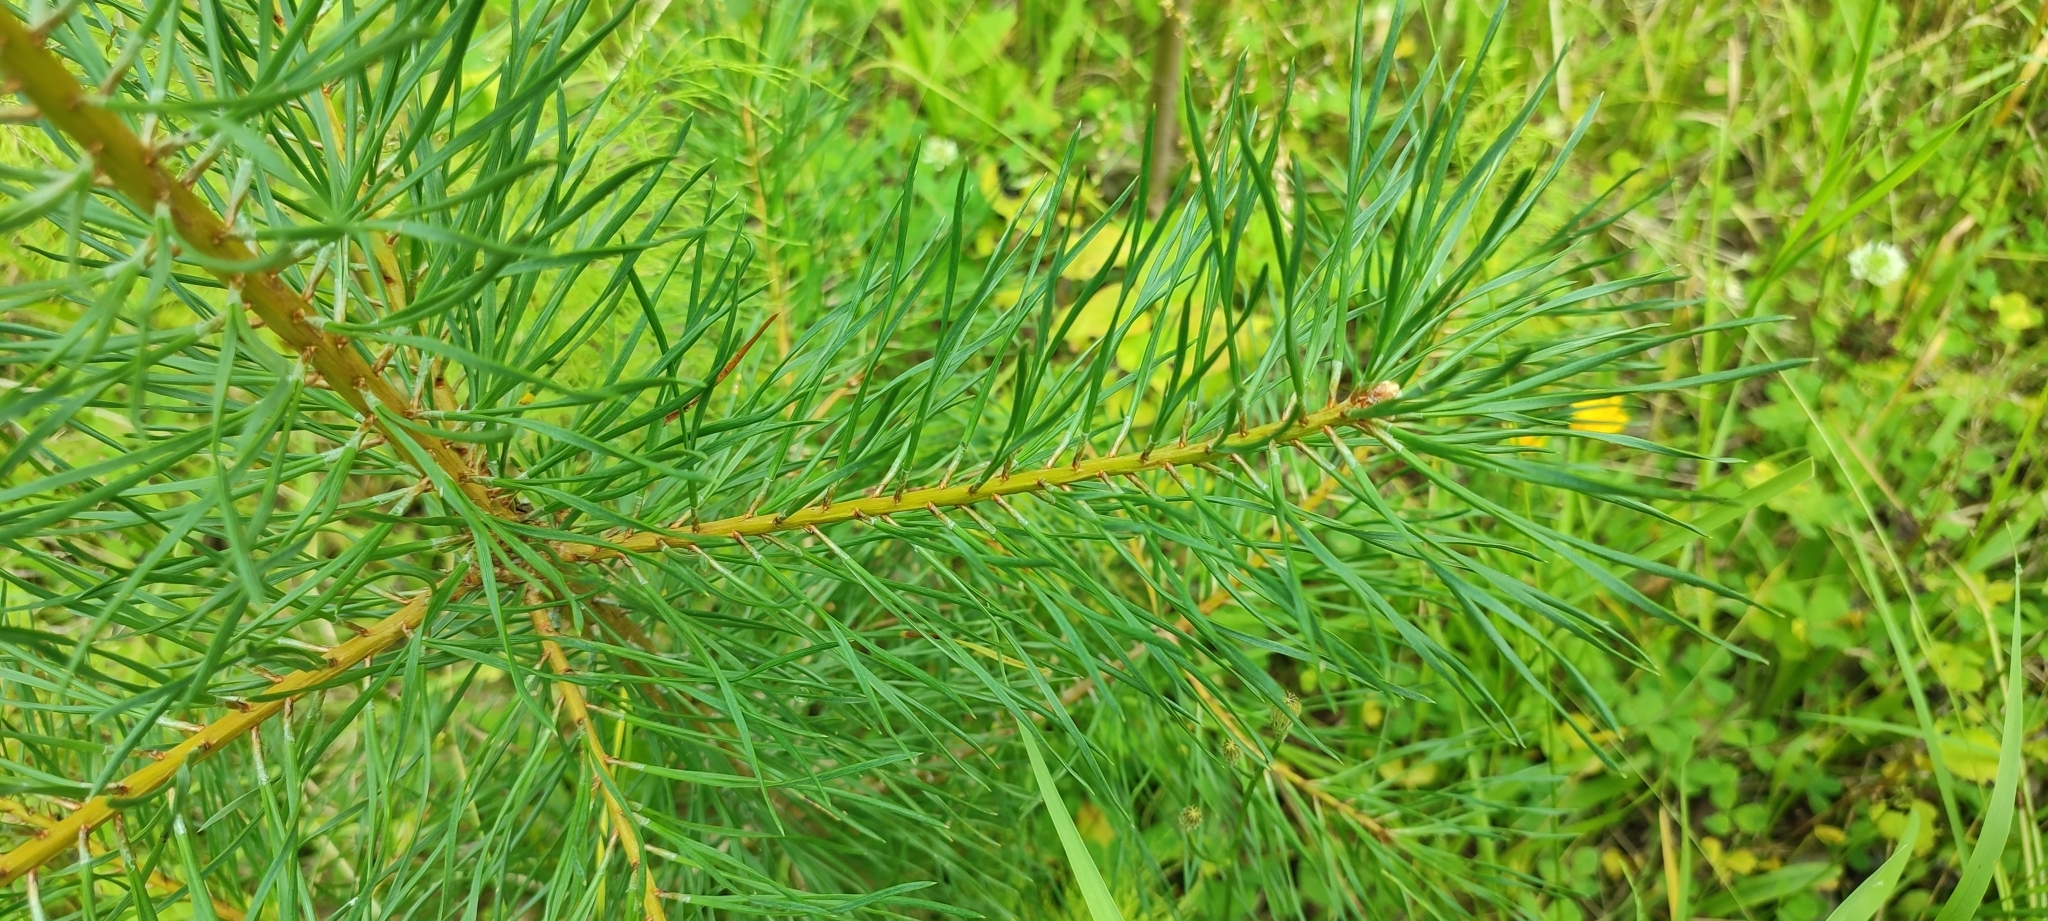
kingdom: Plantae
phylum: Tracheophyta
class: Pinopsida
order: Pinales
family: Pinaceae
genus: Pinus
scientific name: Pinus sylvestris
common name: Scots pine
